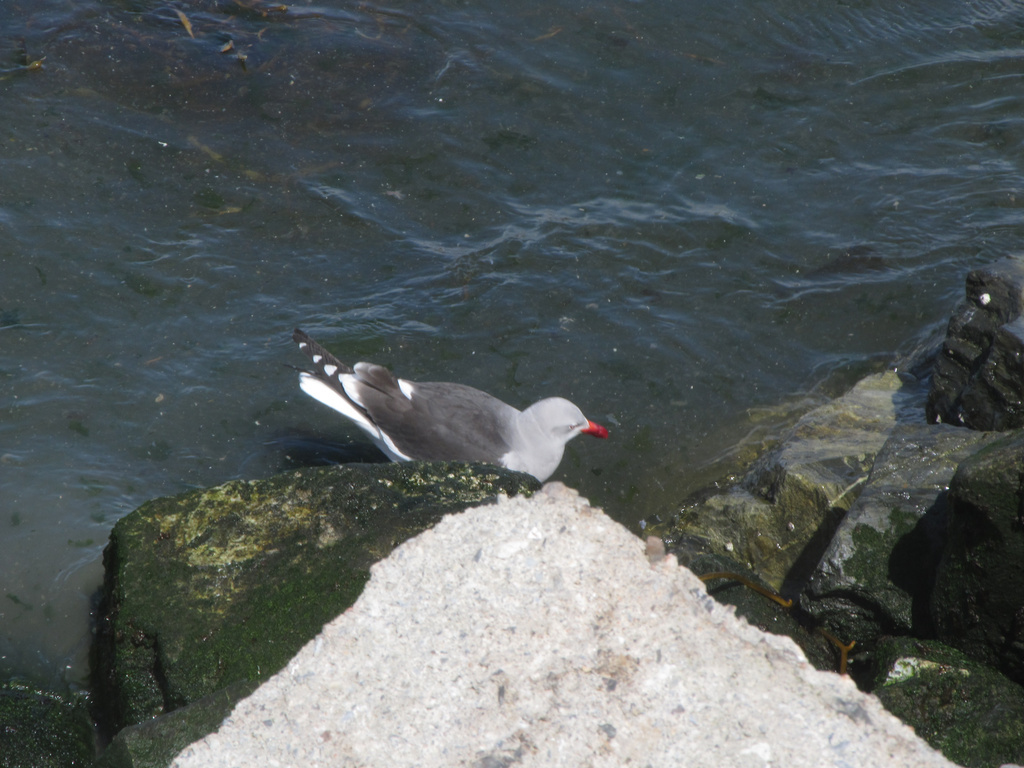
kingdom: Animalia
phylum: Chordata
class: Aves
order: Charadriiformes
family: Laridae
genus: Leucophaeus
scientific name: Leucophaeus scoresbii
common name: Dolphin gull
